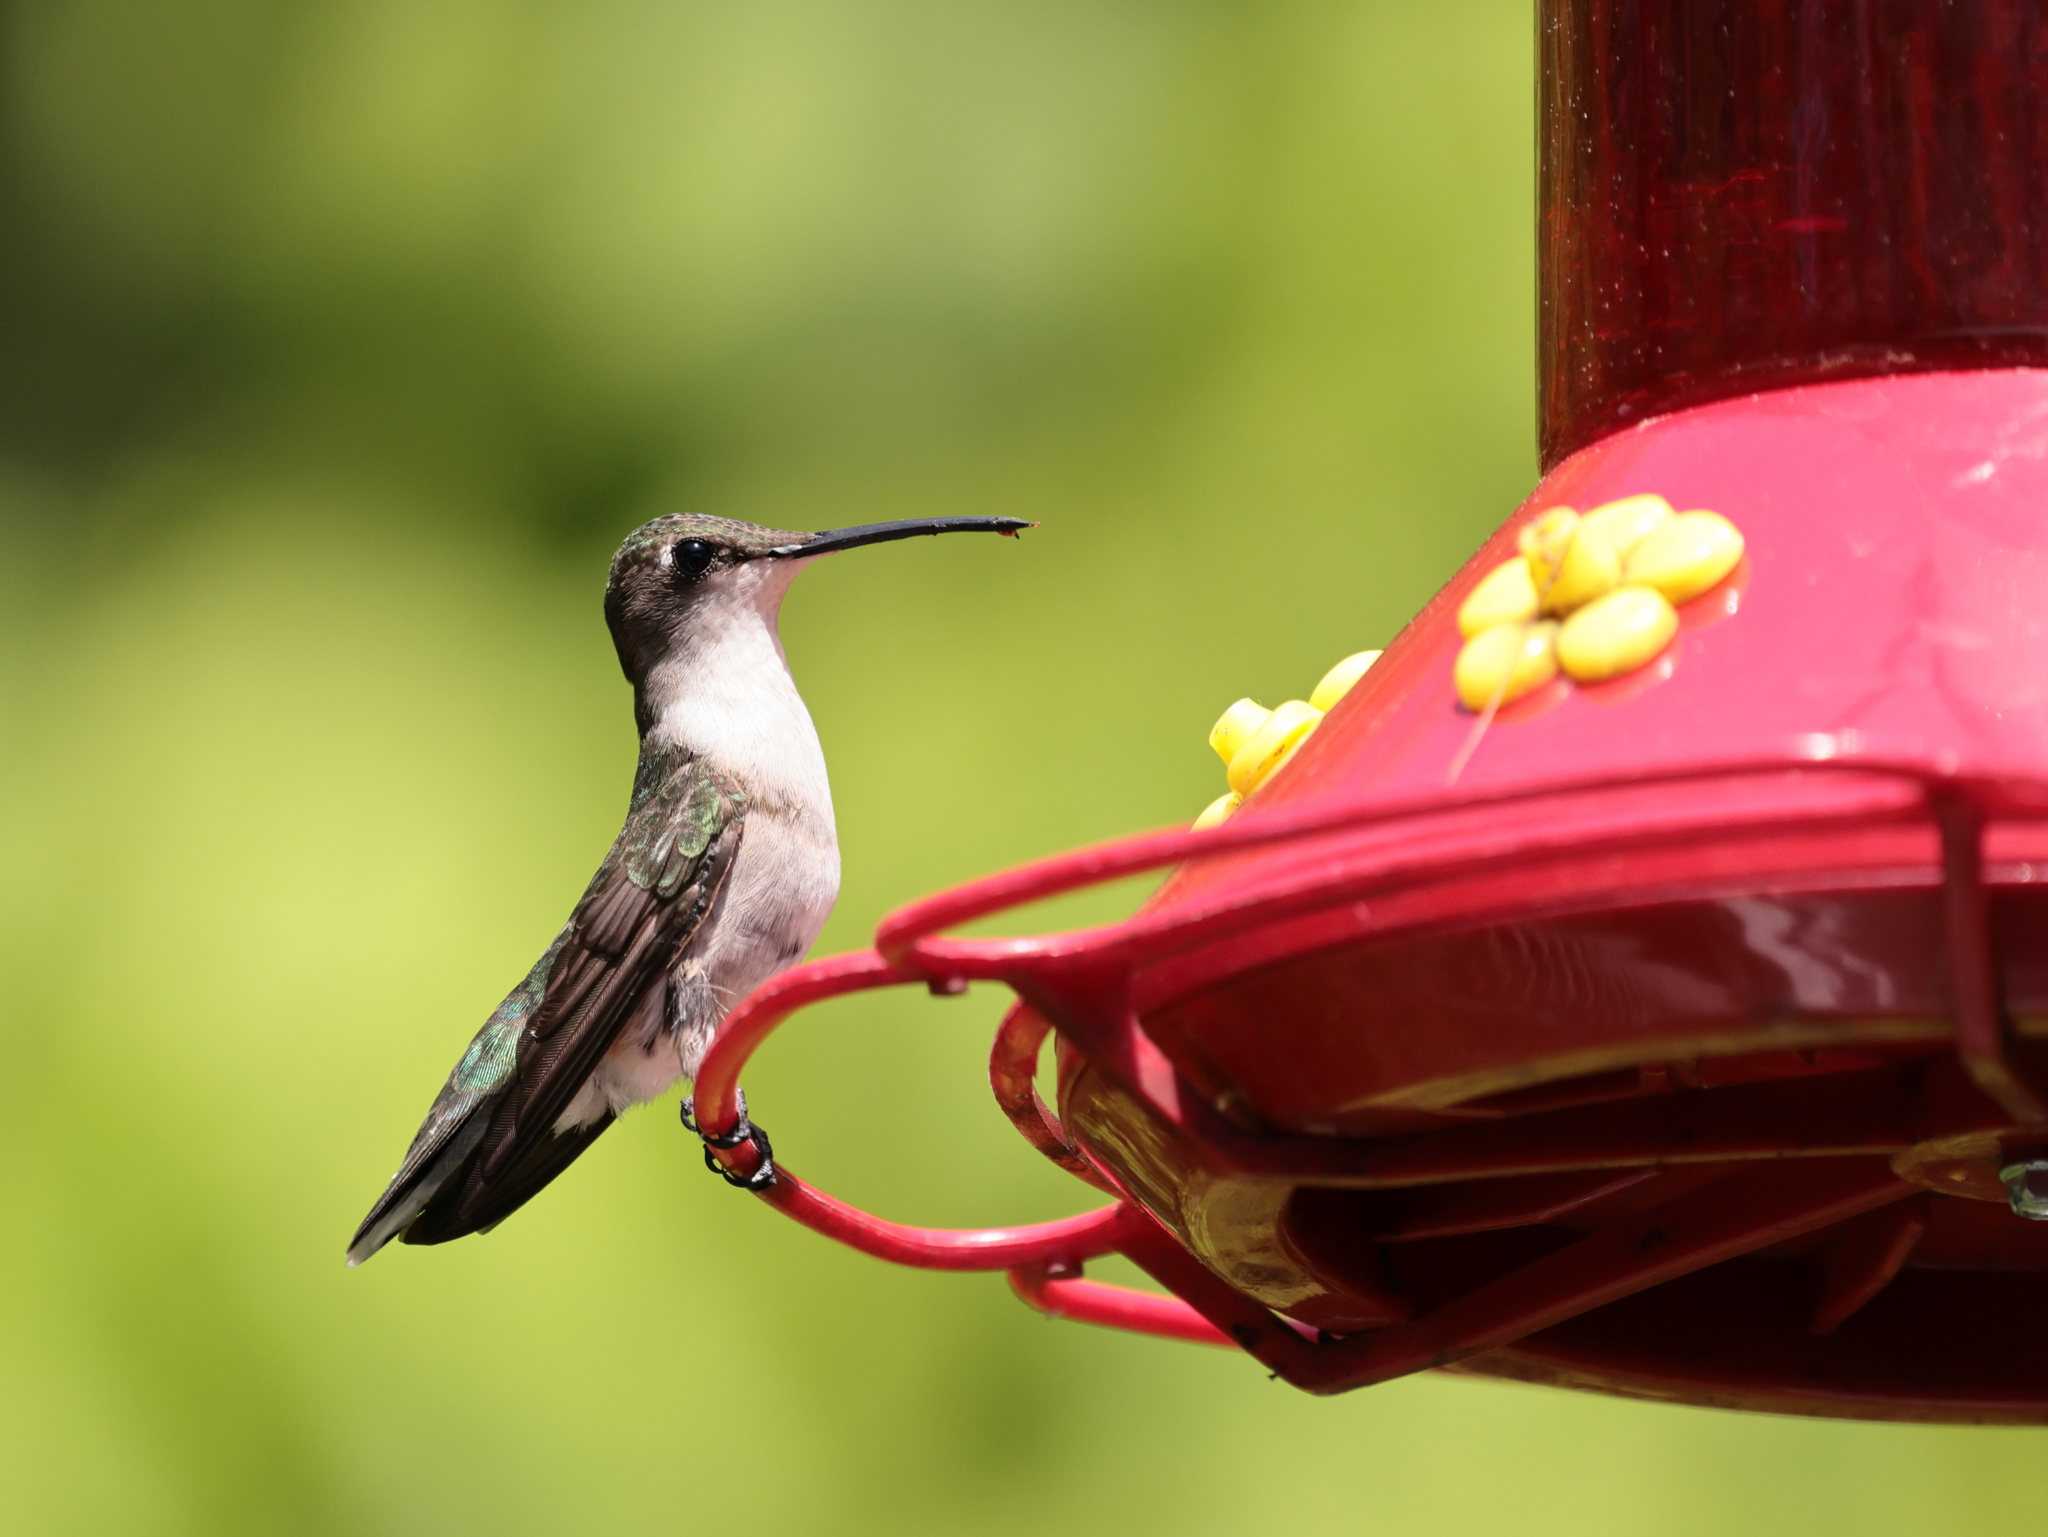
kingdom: Animalia
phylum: Chordata
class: Aves
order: Apodiformes
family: Trochilidae
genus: Archilochus
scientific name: Archilochus colubris
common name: Ruby-throated hummingbird
